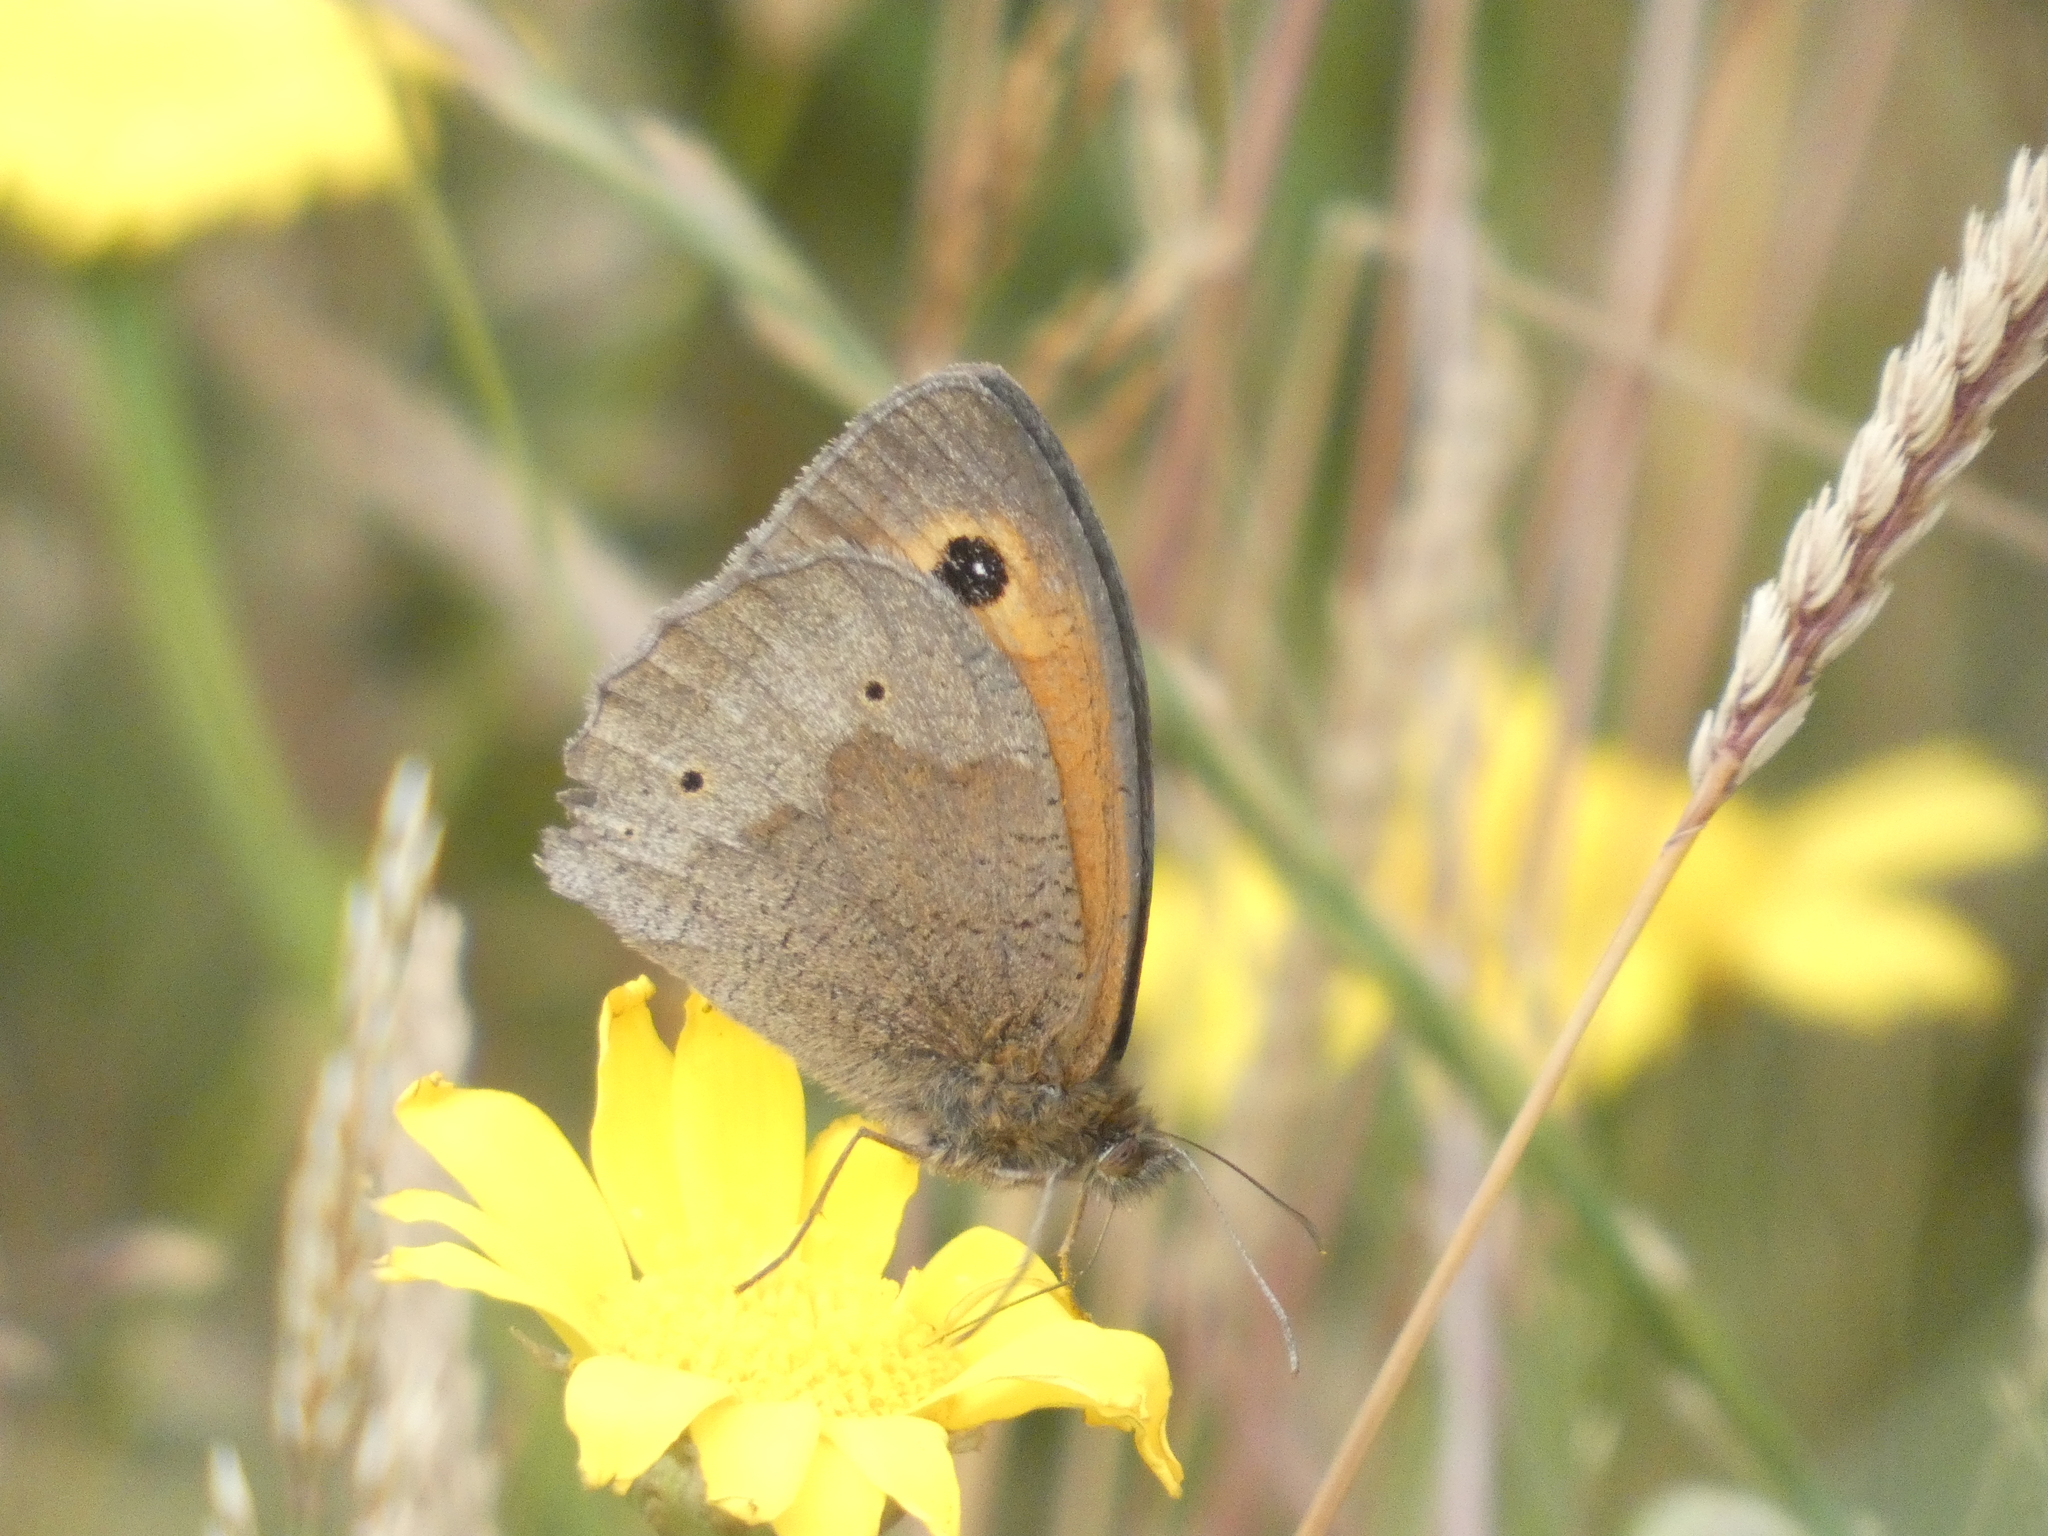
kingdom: Animalia
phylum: Arthropoda
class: Insecta
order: Lepidoptera
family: Nymphalidae
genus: Maniola
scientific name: Maniola jurtina
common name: Meadow brown
